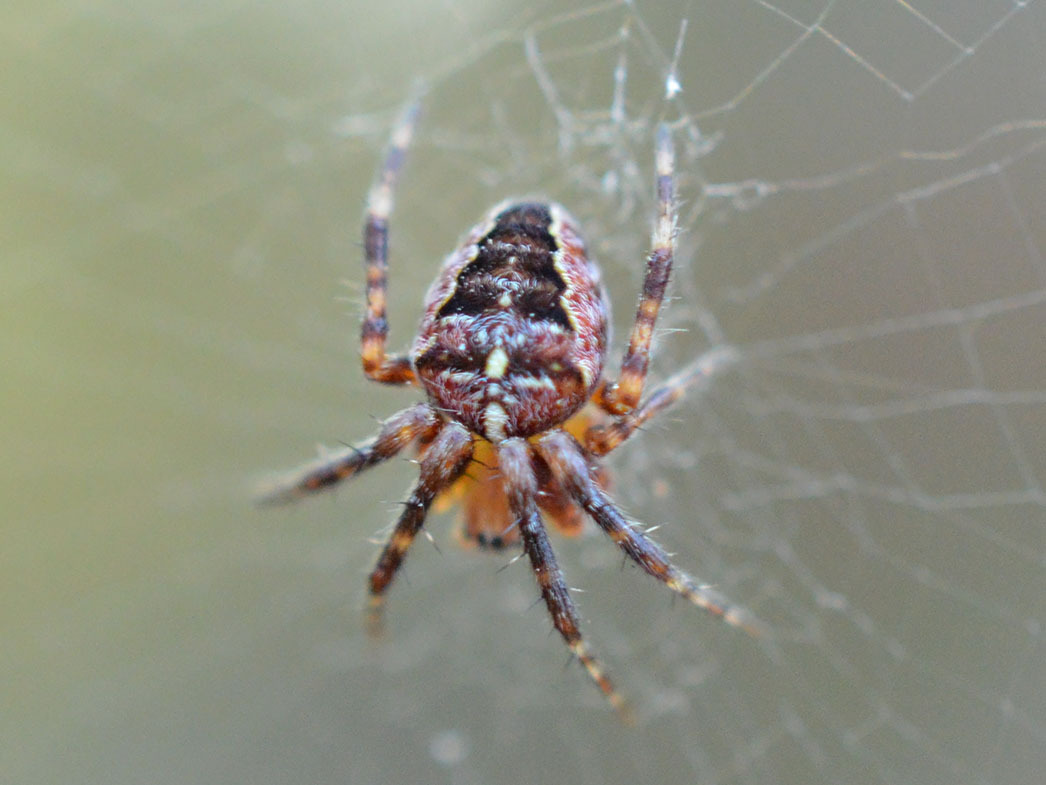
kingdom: Animalia
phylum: Arthropoda
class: Arachnida
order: Araneae
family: Araneidae
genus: Araneus
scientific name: Araneus diadematus
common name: Cross orbweaver
